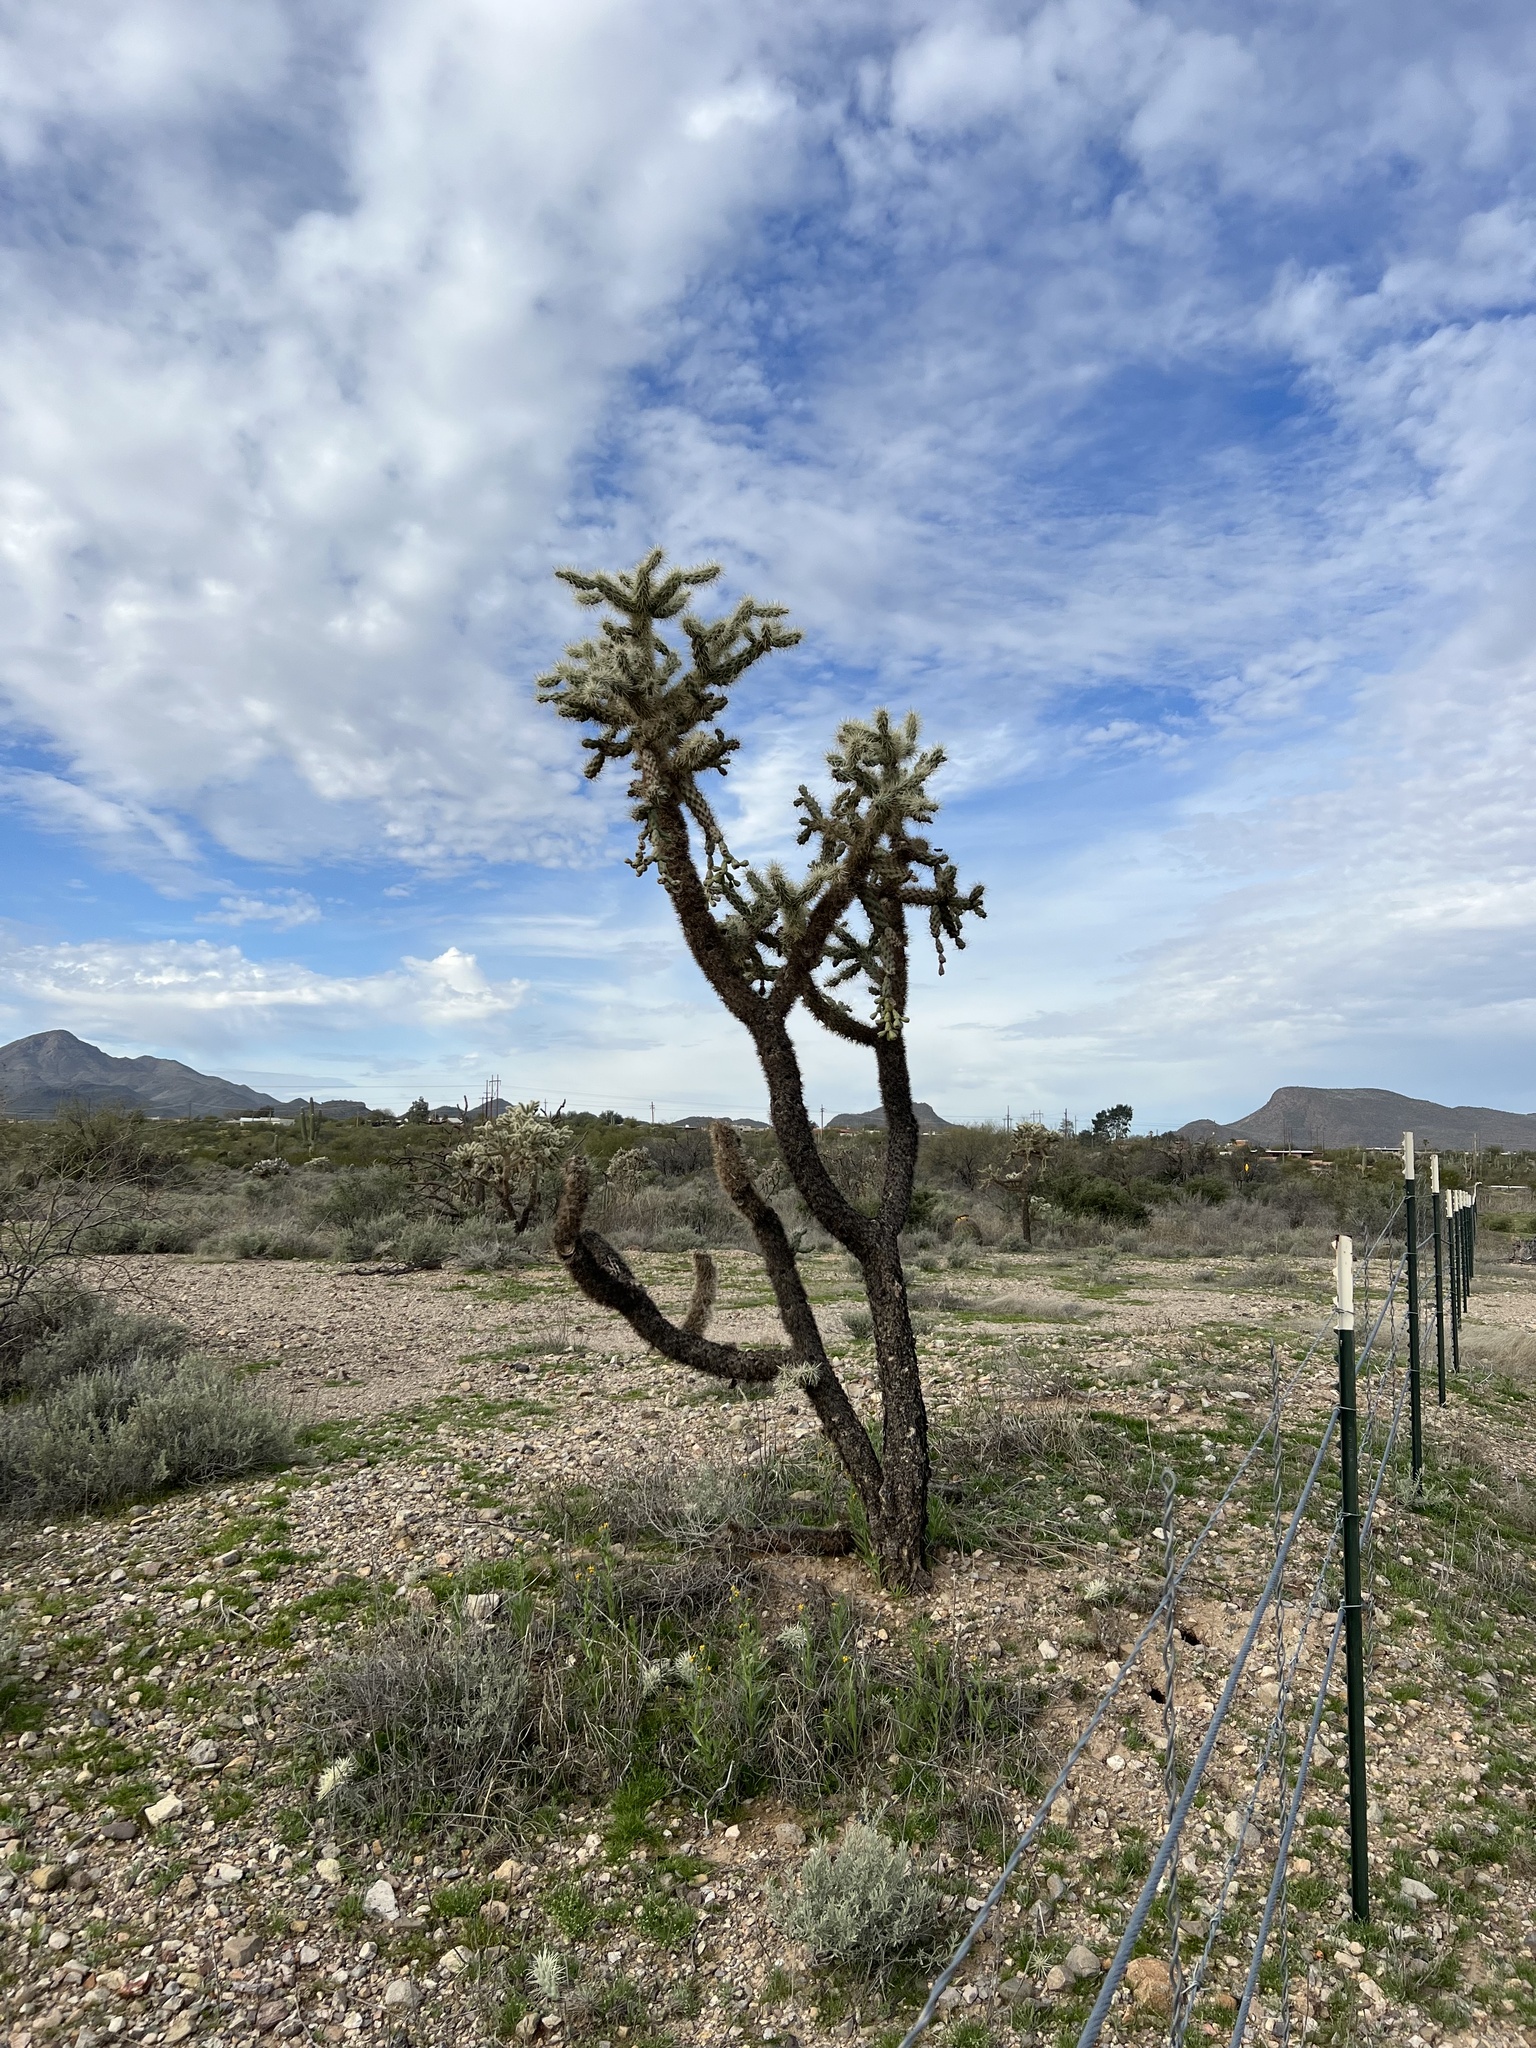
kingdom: Plantae
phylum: Tracheophyta
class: Magnoliopsida
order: Caryophyllales
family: Cactaceae
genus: Cylindropuntia
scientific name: Cylindropuntia fulgida
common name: Jumping cholla
